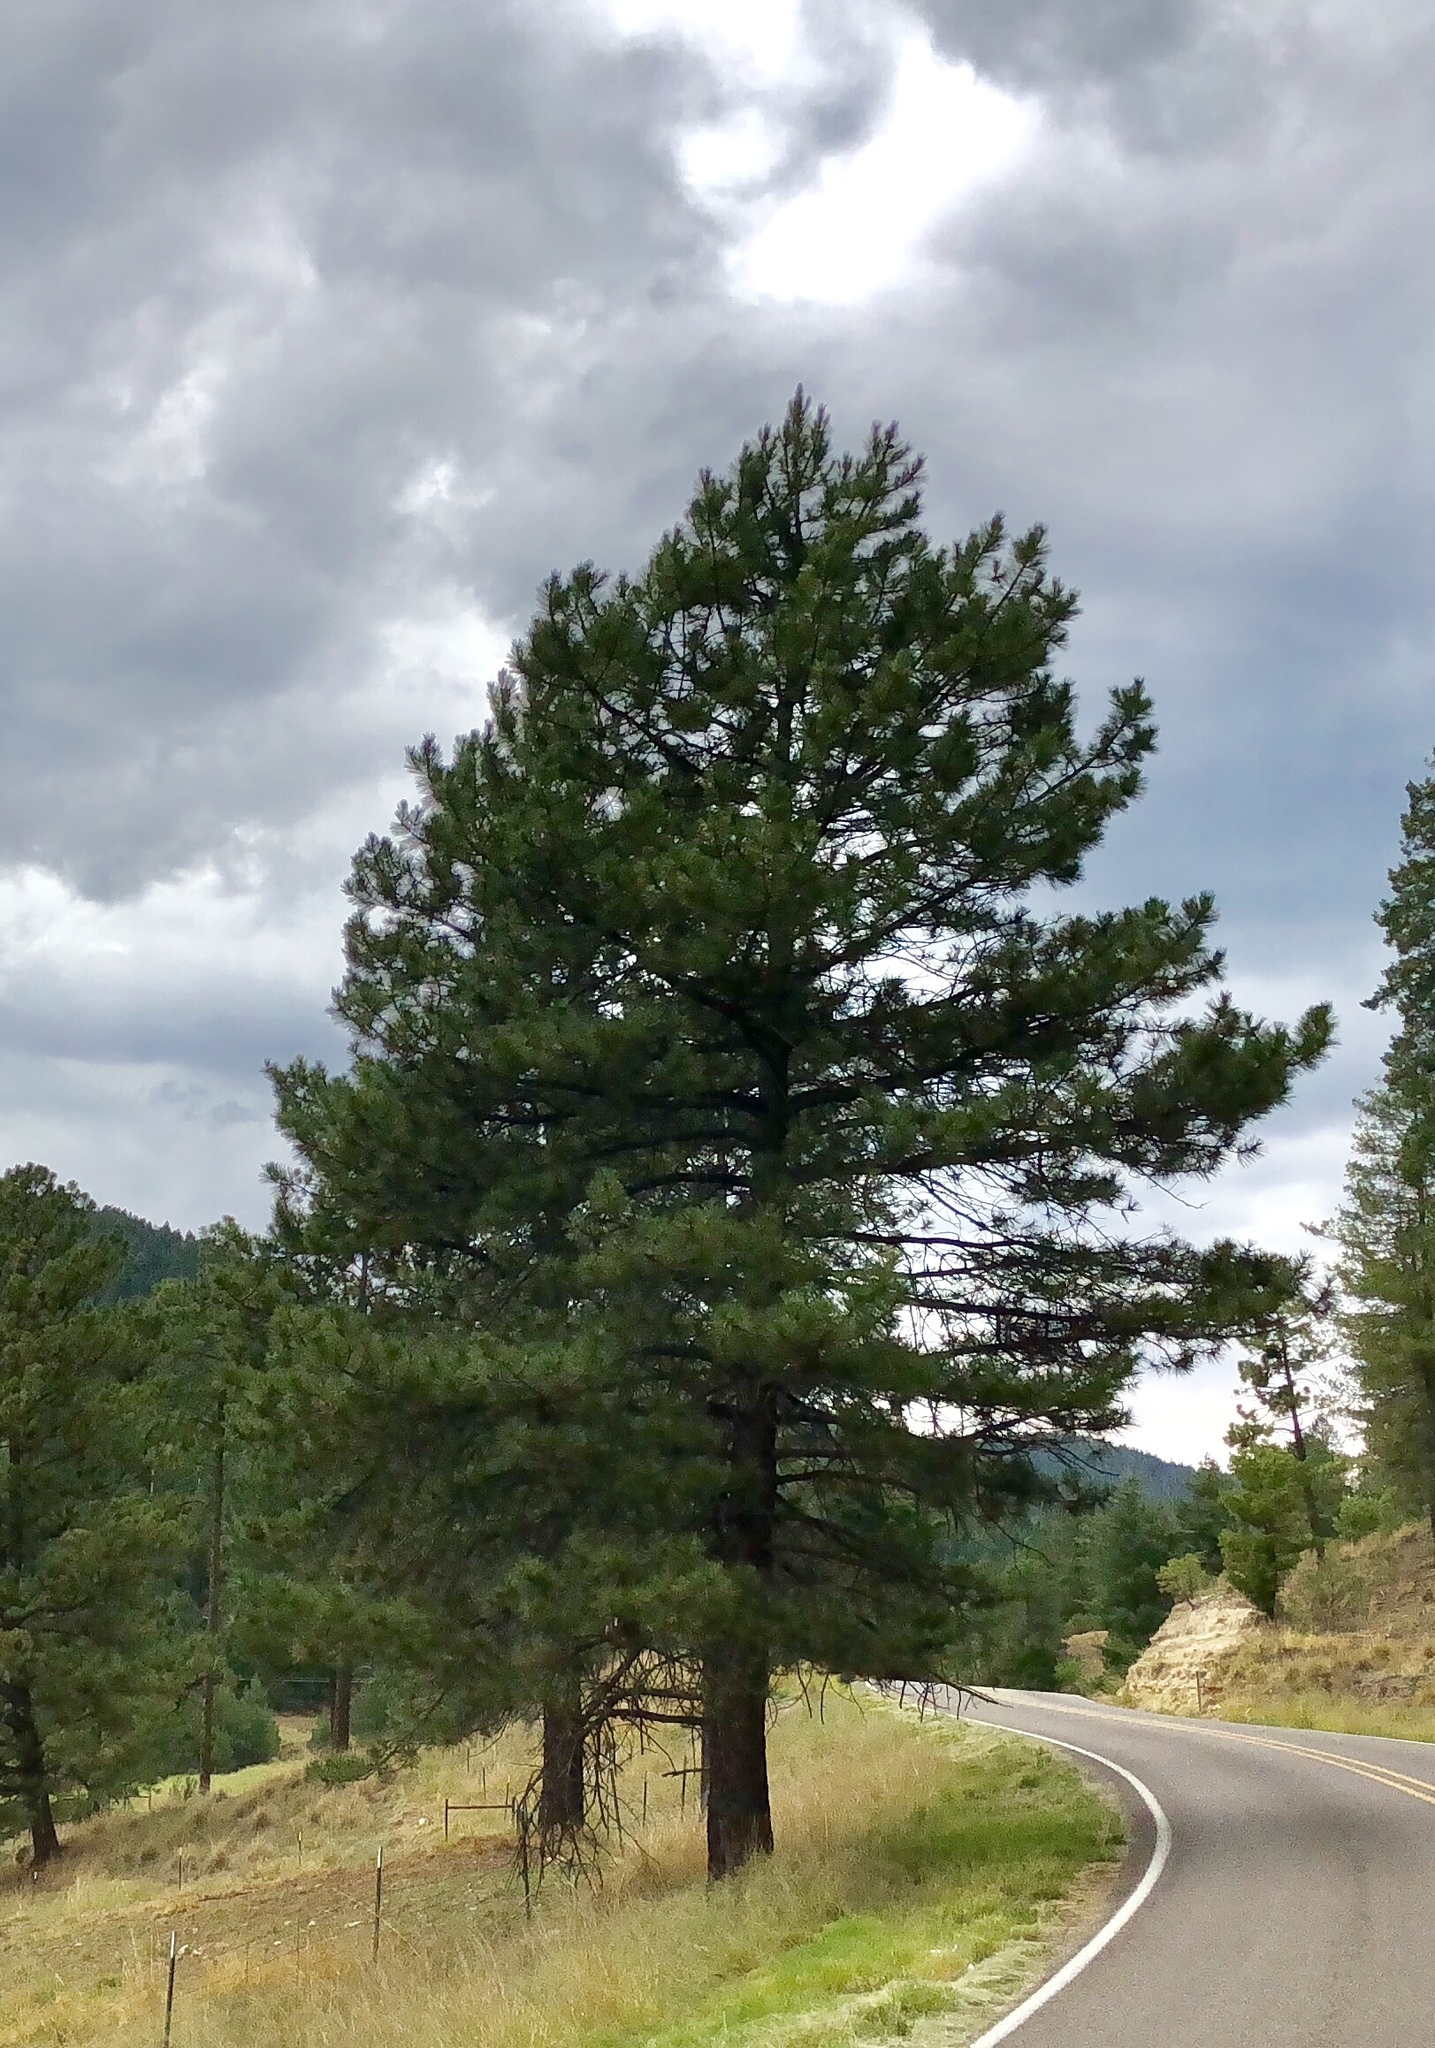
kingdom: Plantae
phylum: Tracheophyta
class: Pinopsida
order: Pinales
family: Pinaceae
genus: Pinus
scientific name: Pinus ponderosa
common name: Western yellow-pine
